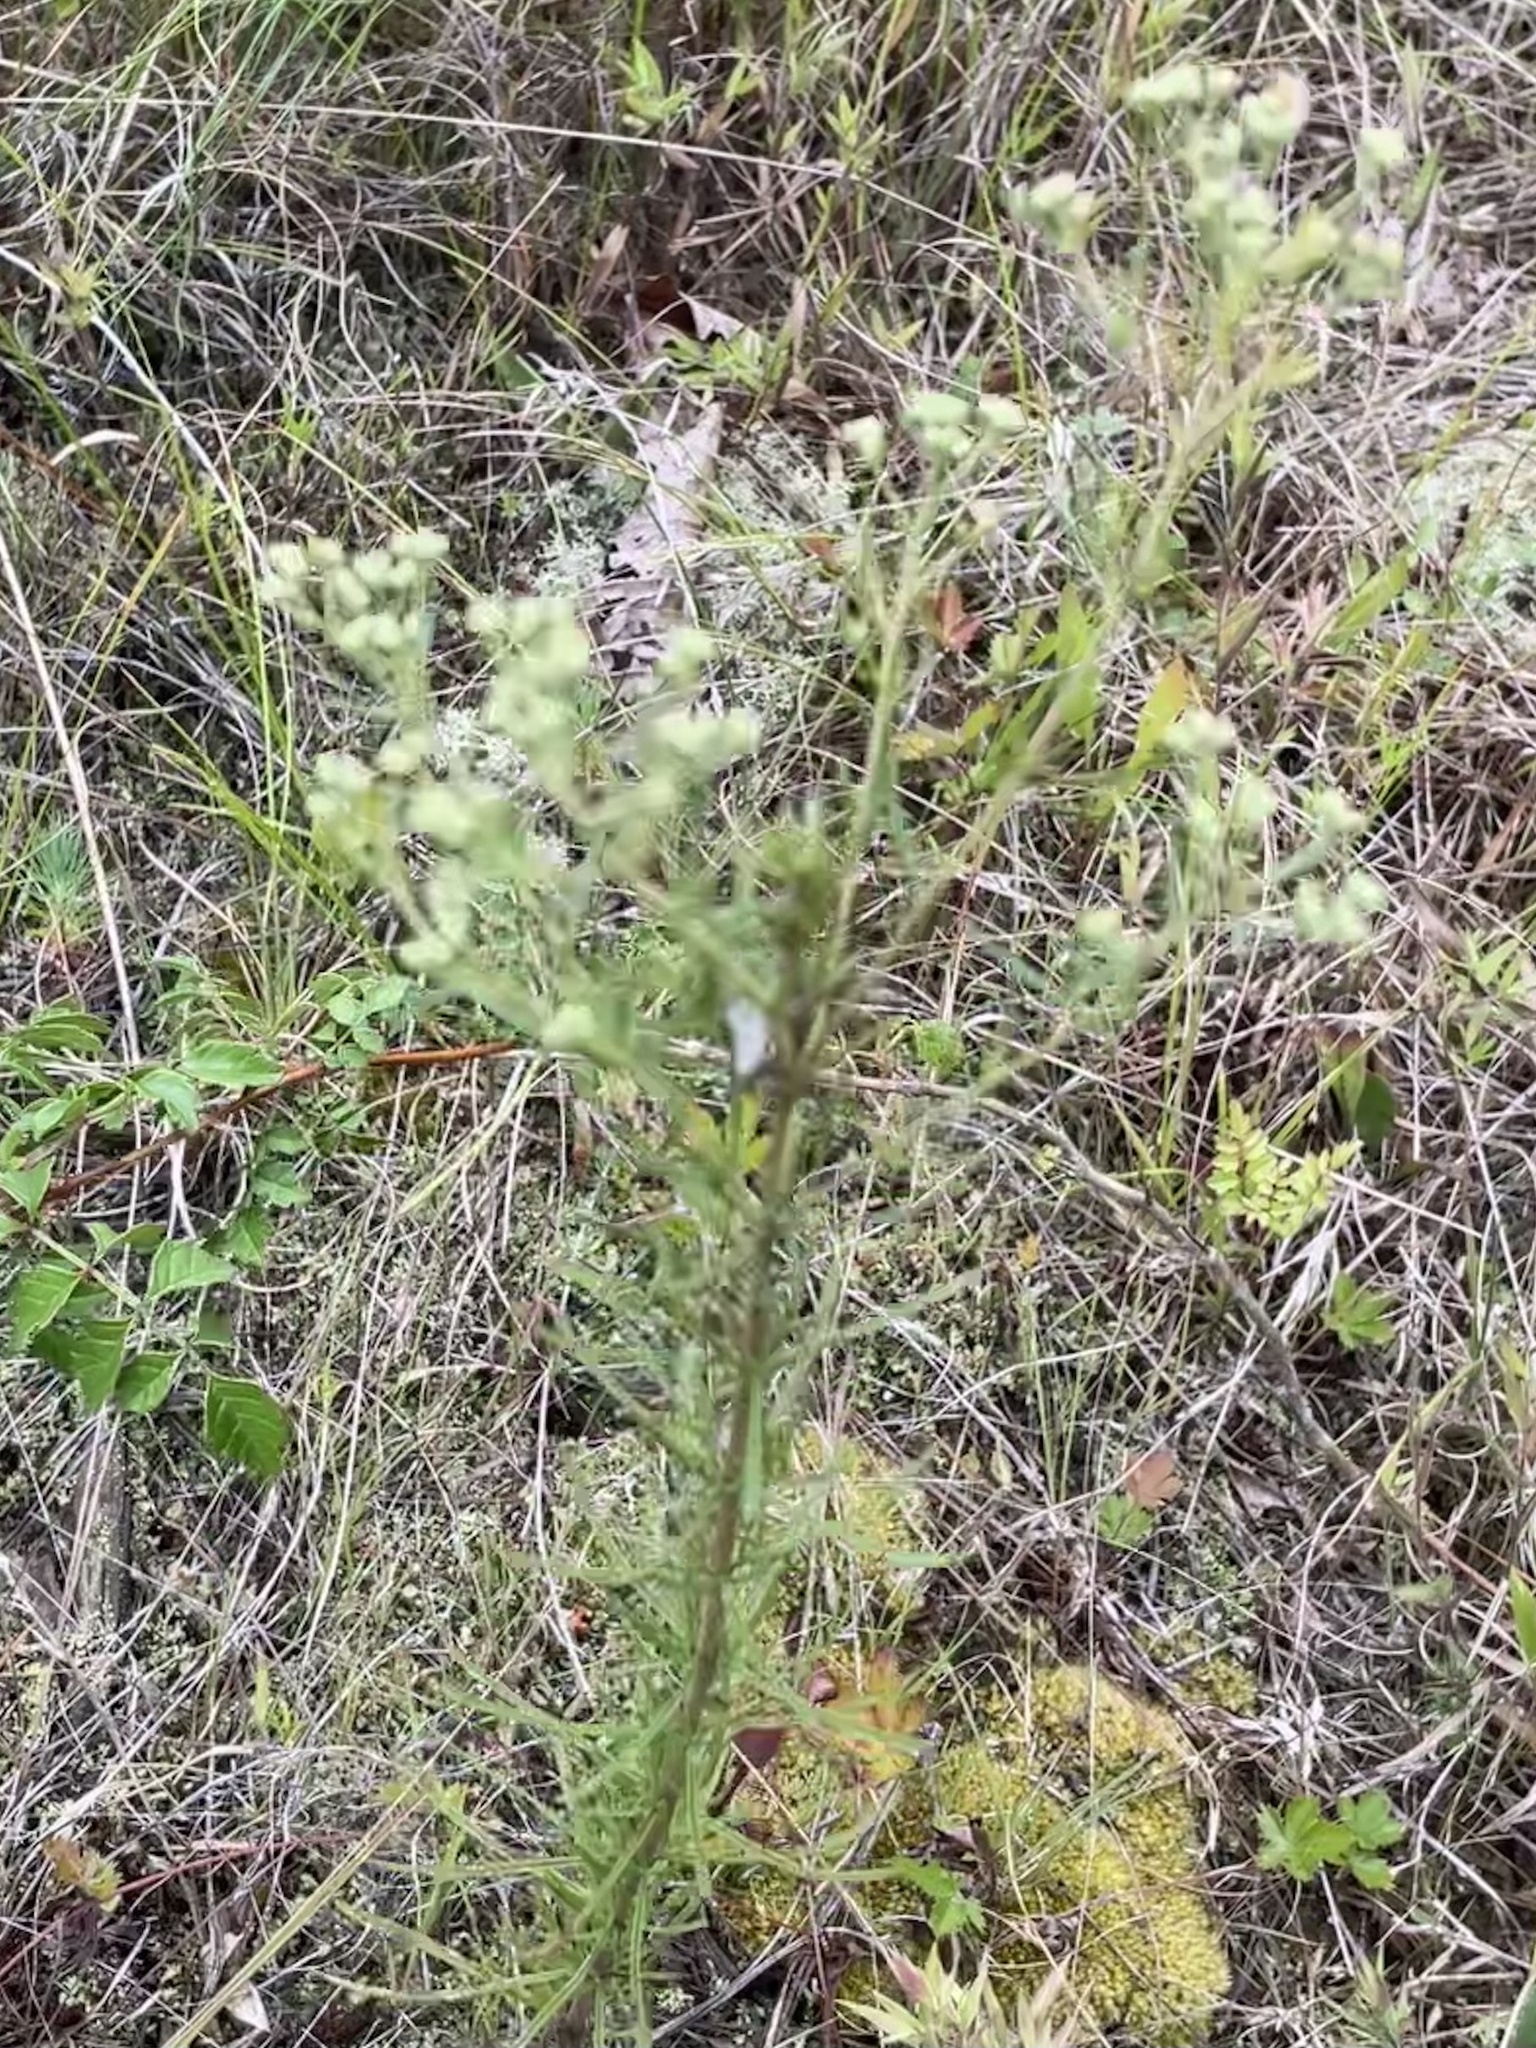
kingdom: Plantae
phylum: Tracheophyta
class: Magnoliopsida
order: Asterales
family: Asteraceae
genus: Eupatorium
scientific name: Eupatorium hyssopifolium
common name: Hyssop-leaf thoroughwort
